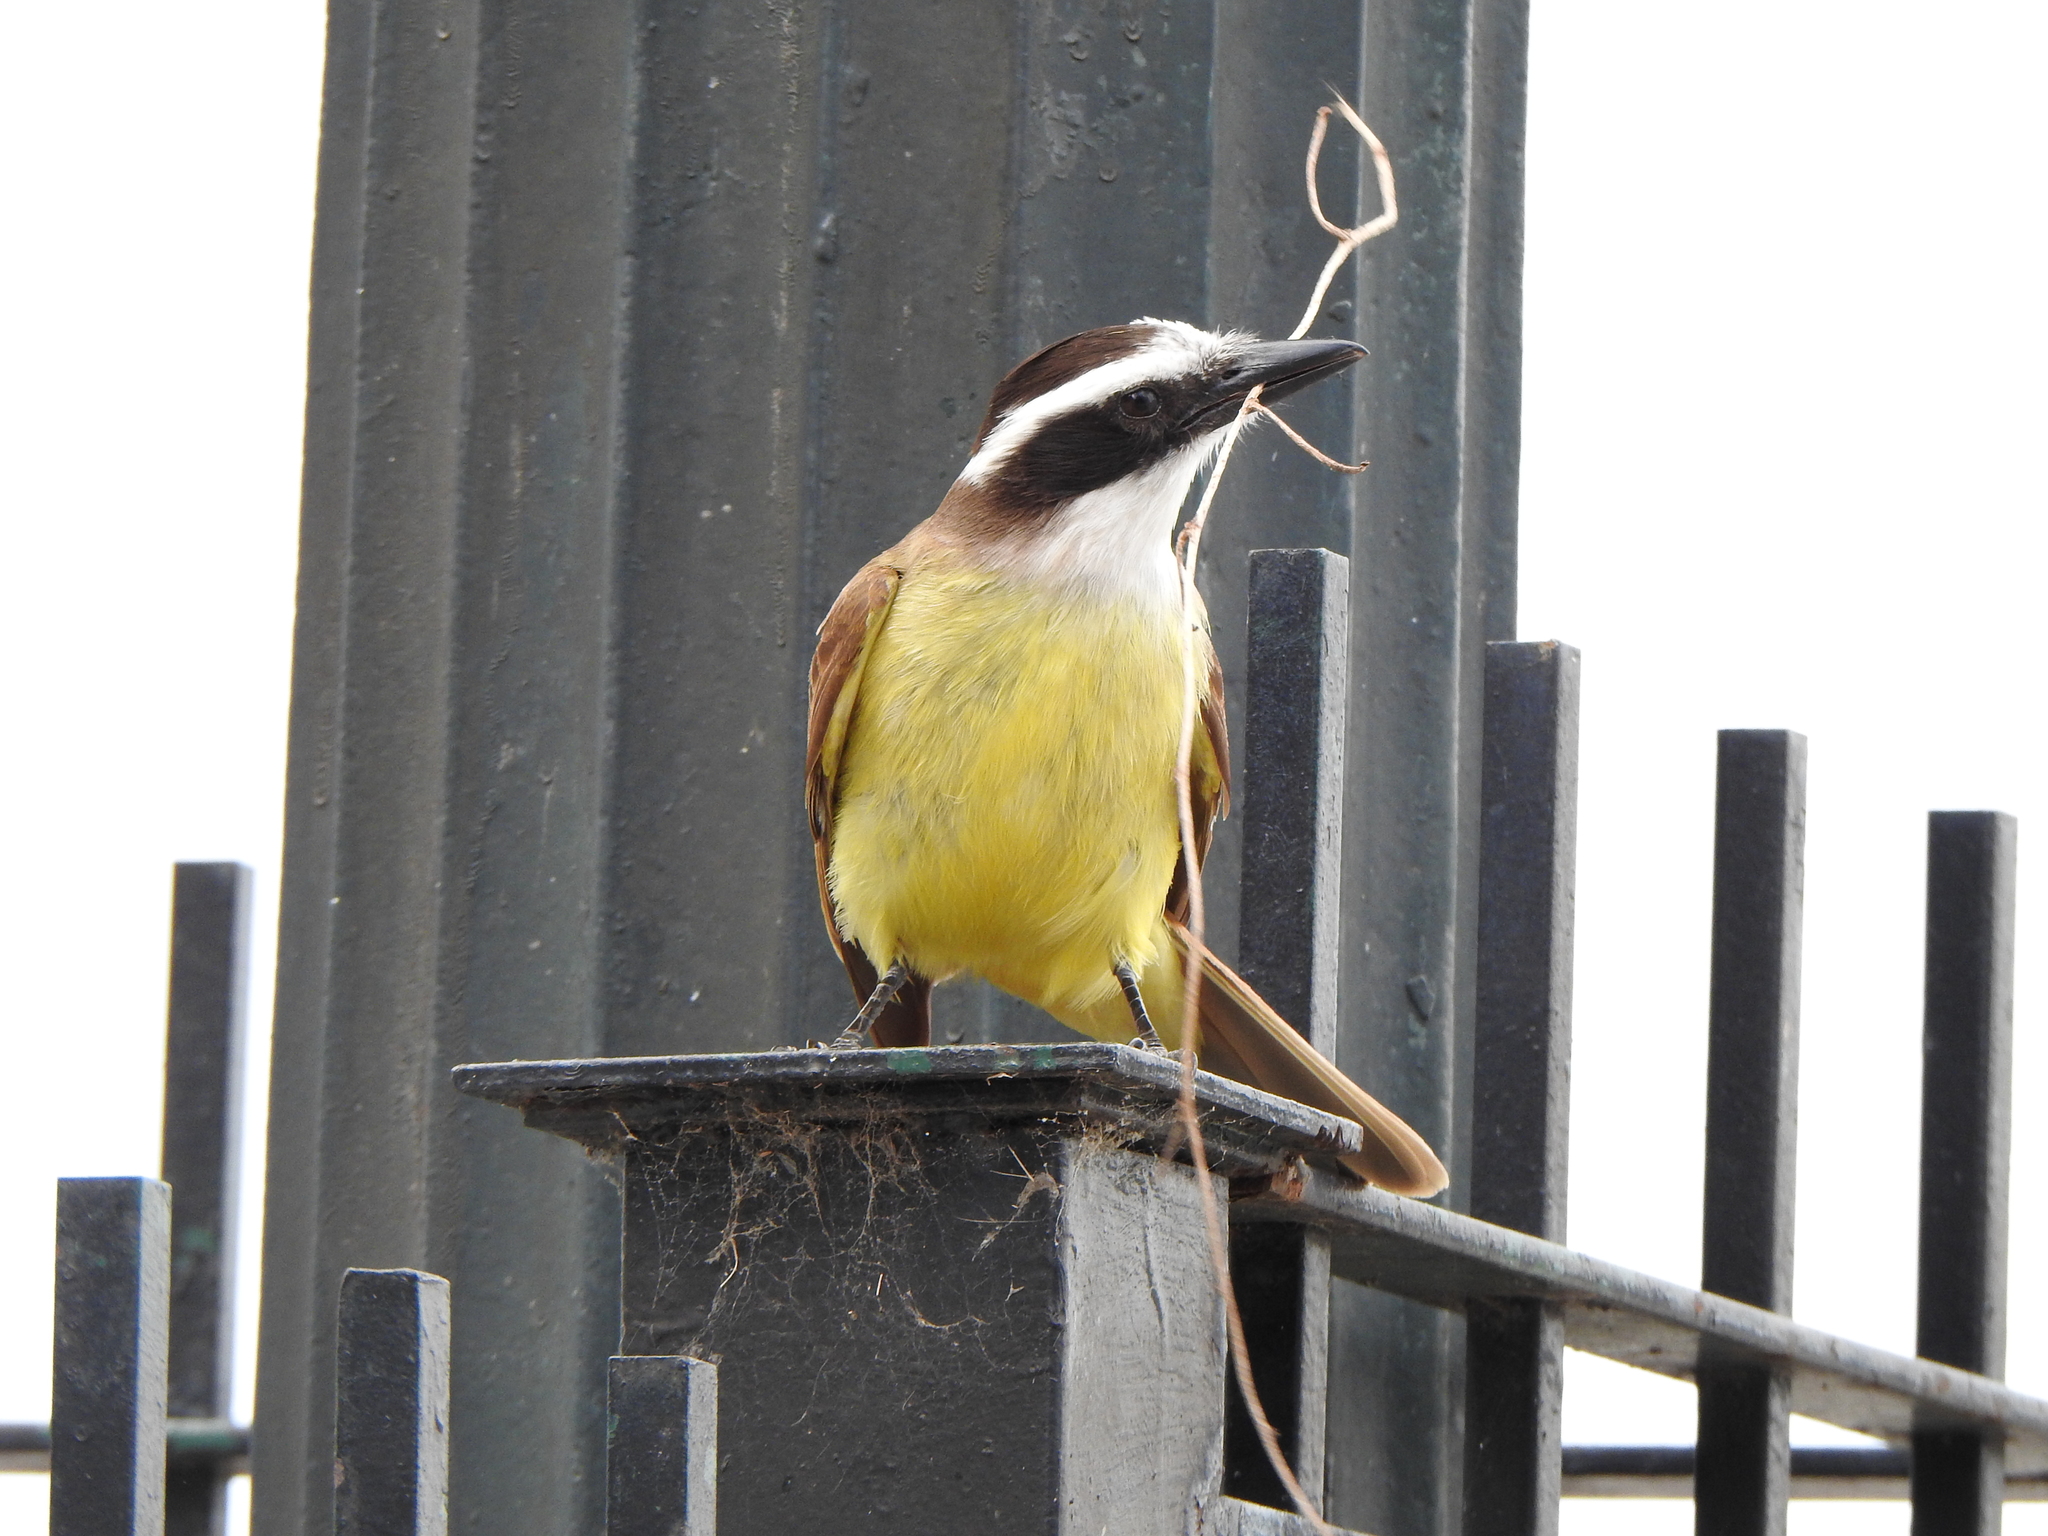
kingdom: Animalia
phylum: Chordata
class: Aves
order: Passeriformes
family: Tyrannidae
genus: Pitangus
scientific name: Pitangus sulphuratus
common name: Great kiskadee
